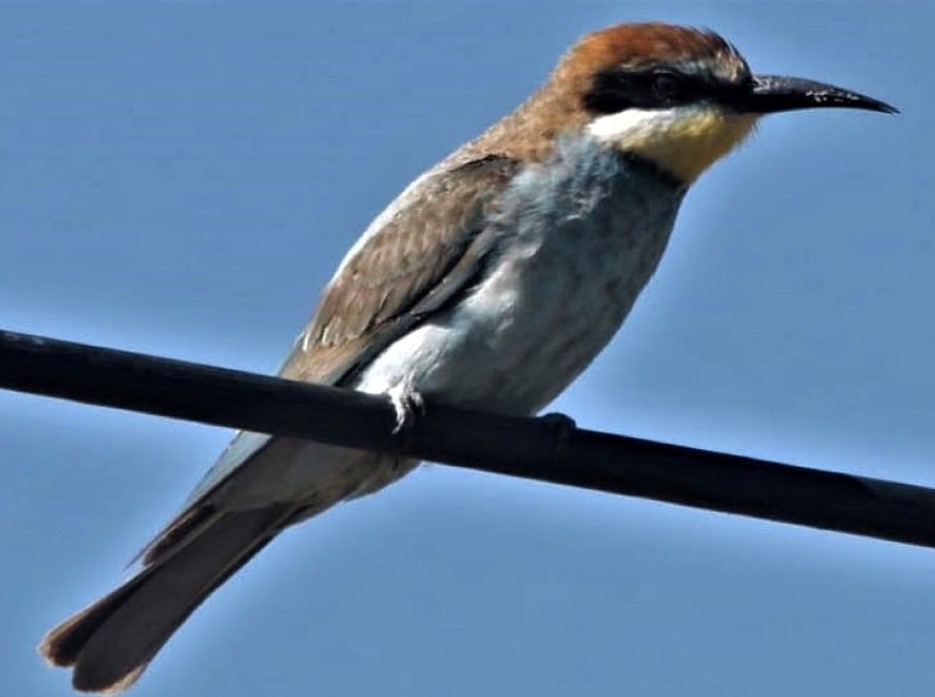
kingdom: Animalia
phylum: Chordata
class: Aves
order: Coraciiformes
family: Meropidae
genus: Merops
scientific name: Merops apiaster
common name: European bee-eater
